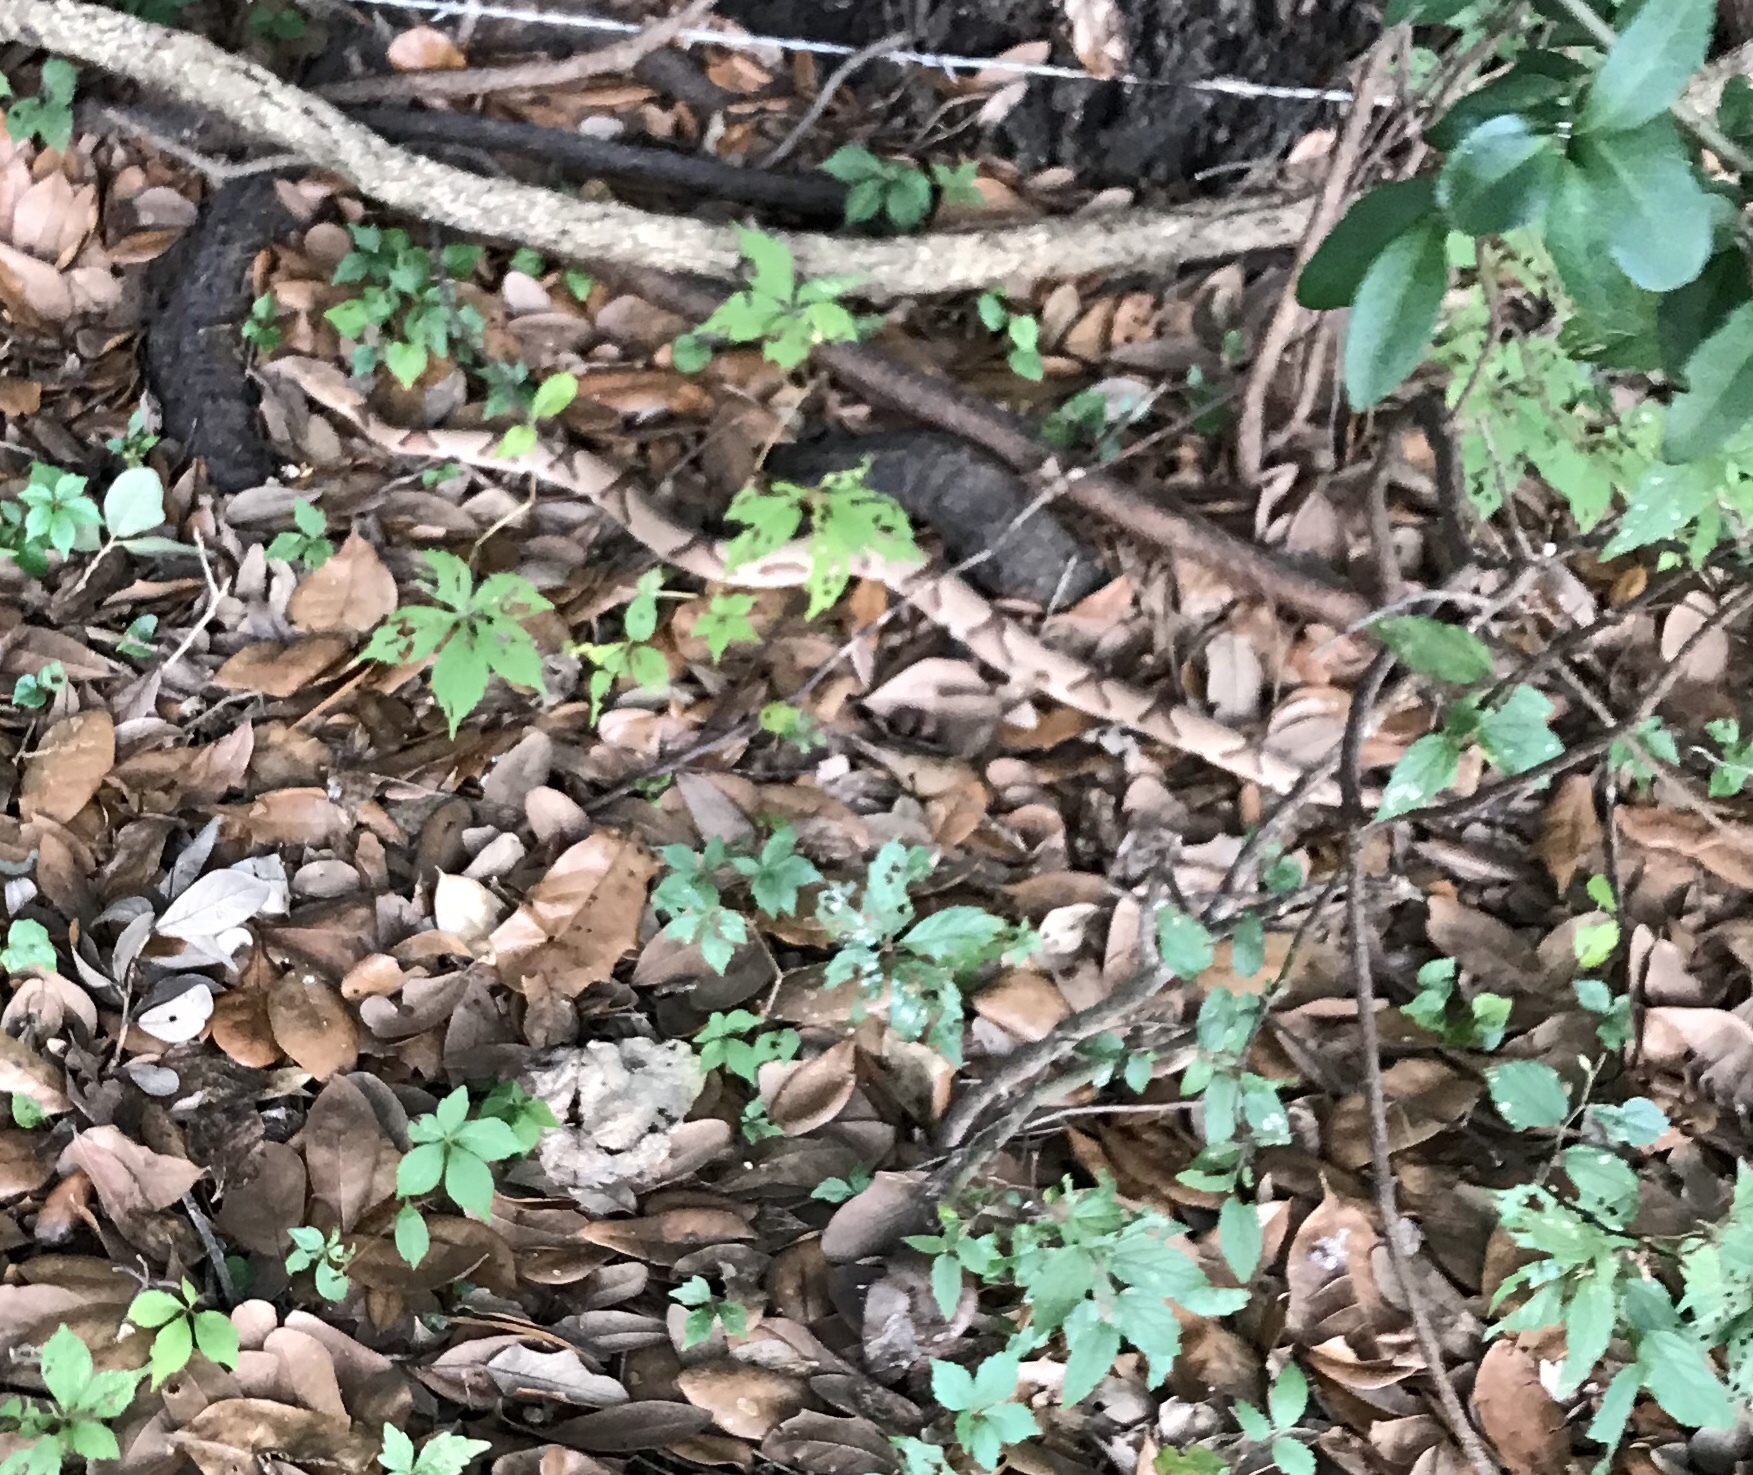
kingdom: Animalia
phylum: Chordata
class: Squamata
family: Viperidae
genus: Agkistrodon
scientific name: Agkistrodon contortrix
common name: Northern copperhead
